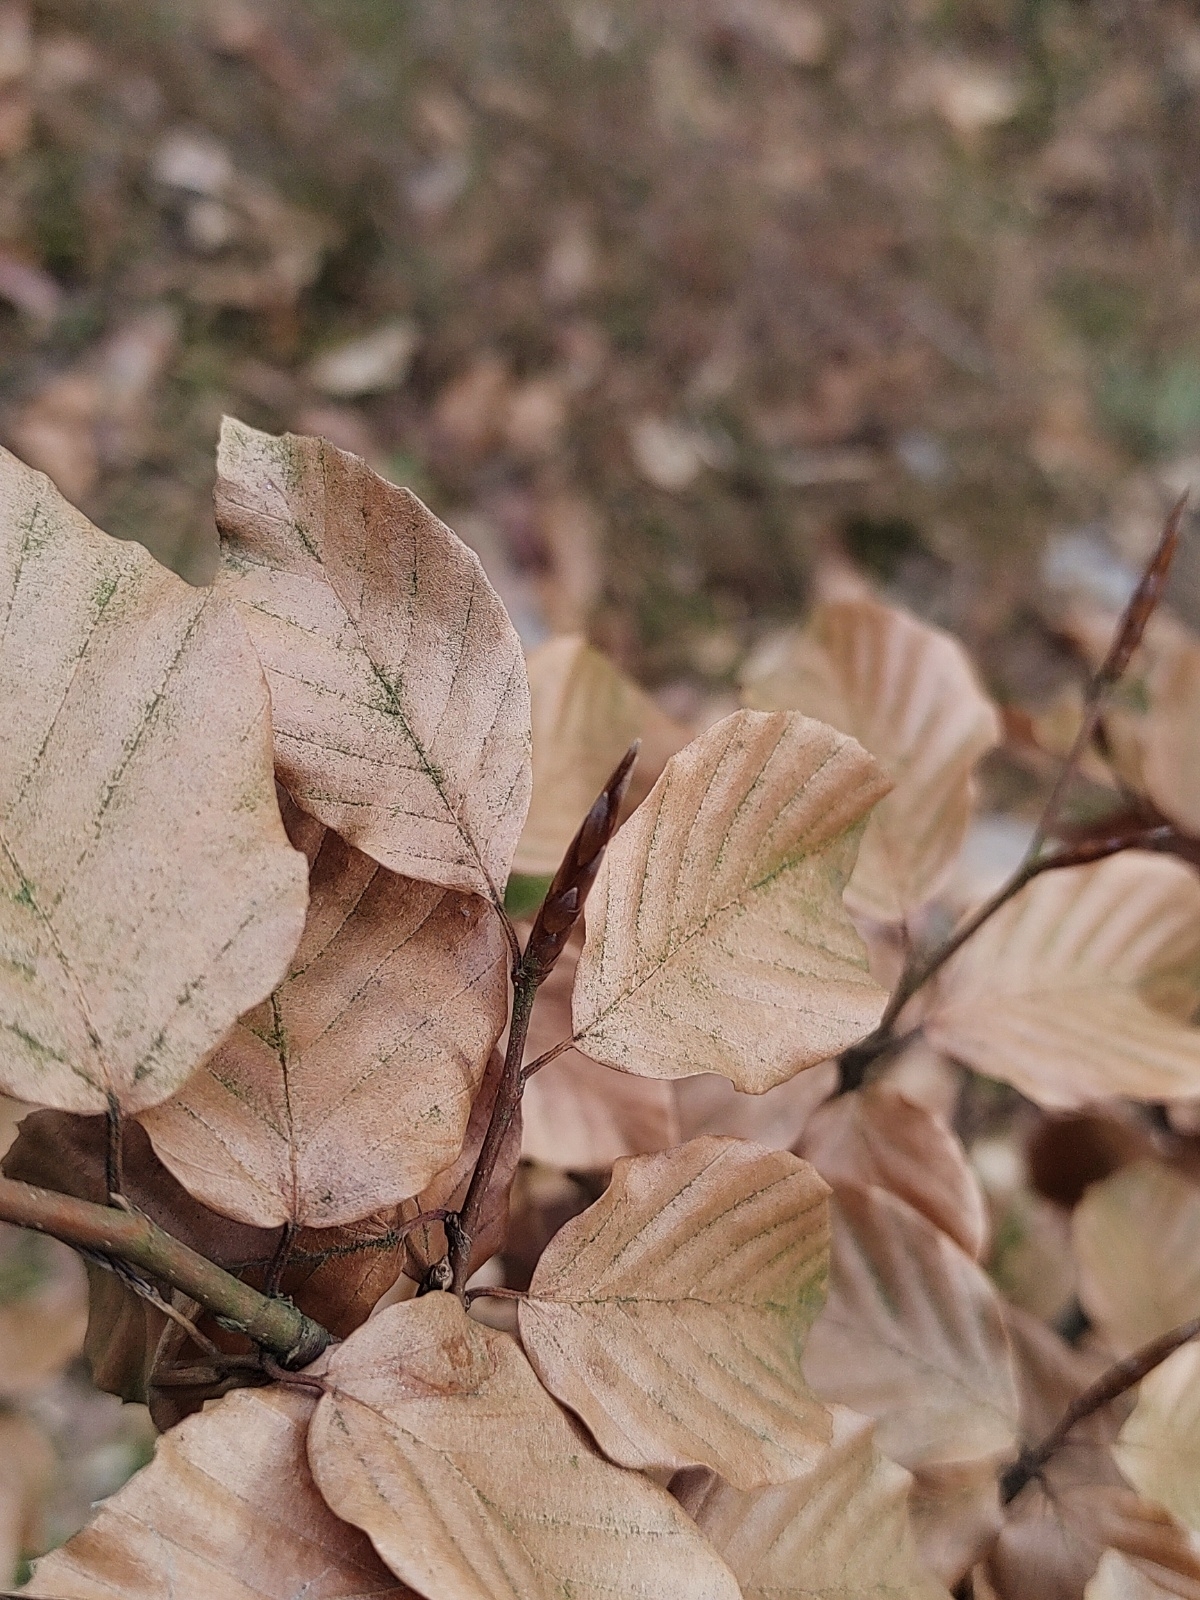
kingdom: Plantae
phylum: Tracheophyta
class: Magnoliopsida
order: Fagales
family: Fagaceae
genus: Fagus
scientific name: Fagus sylvatica
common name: Beech
